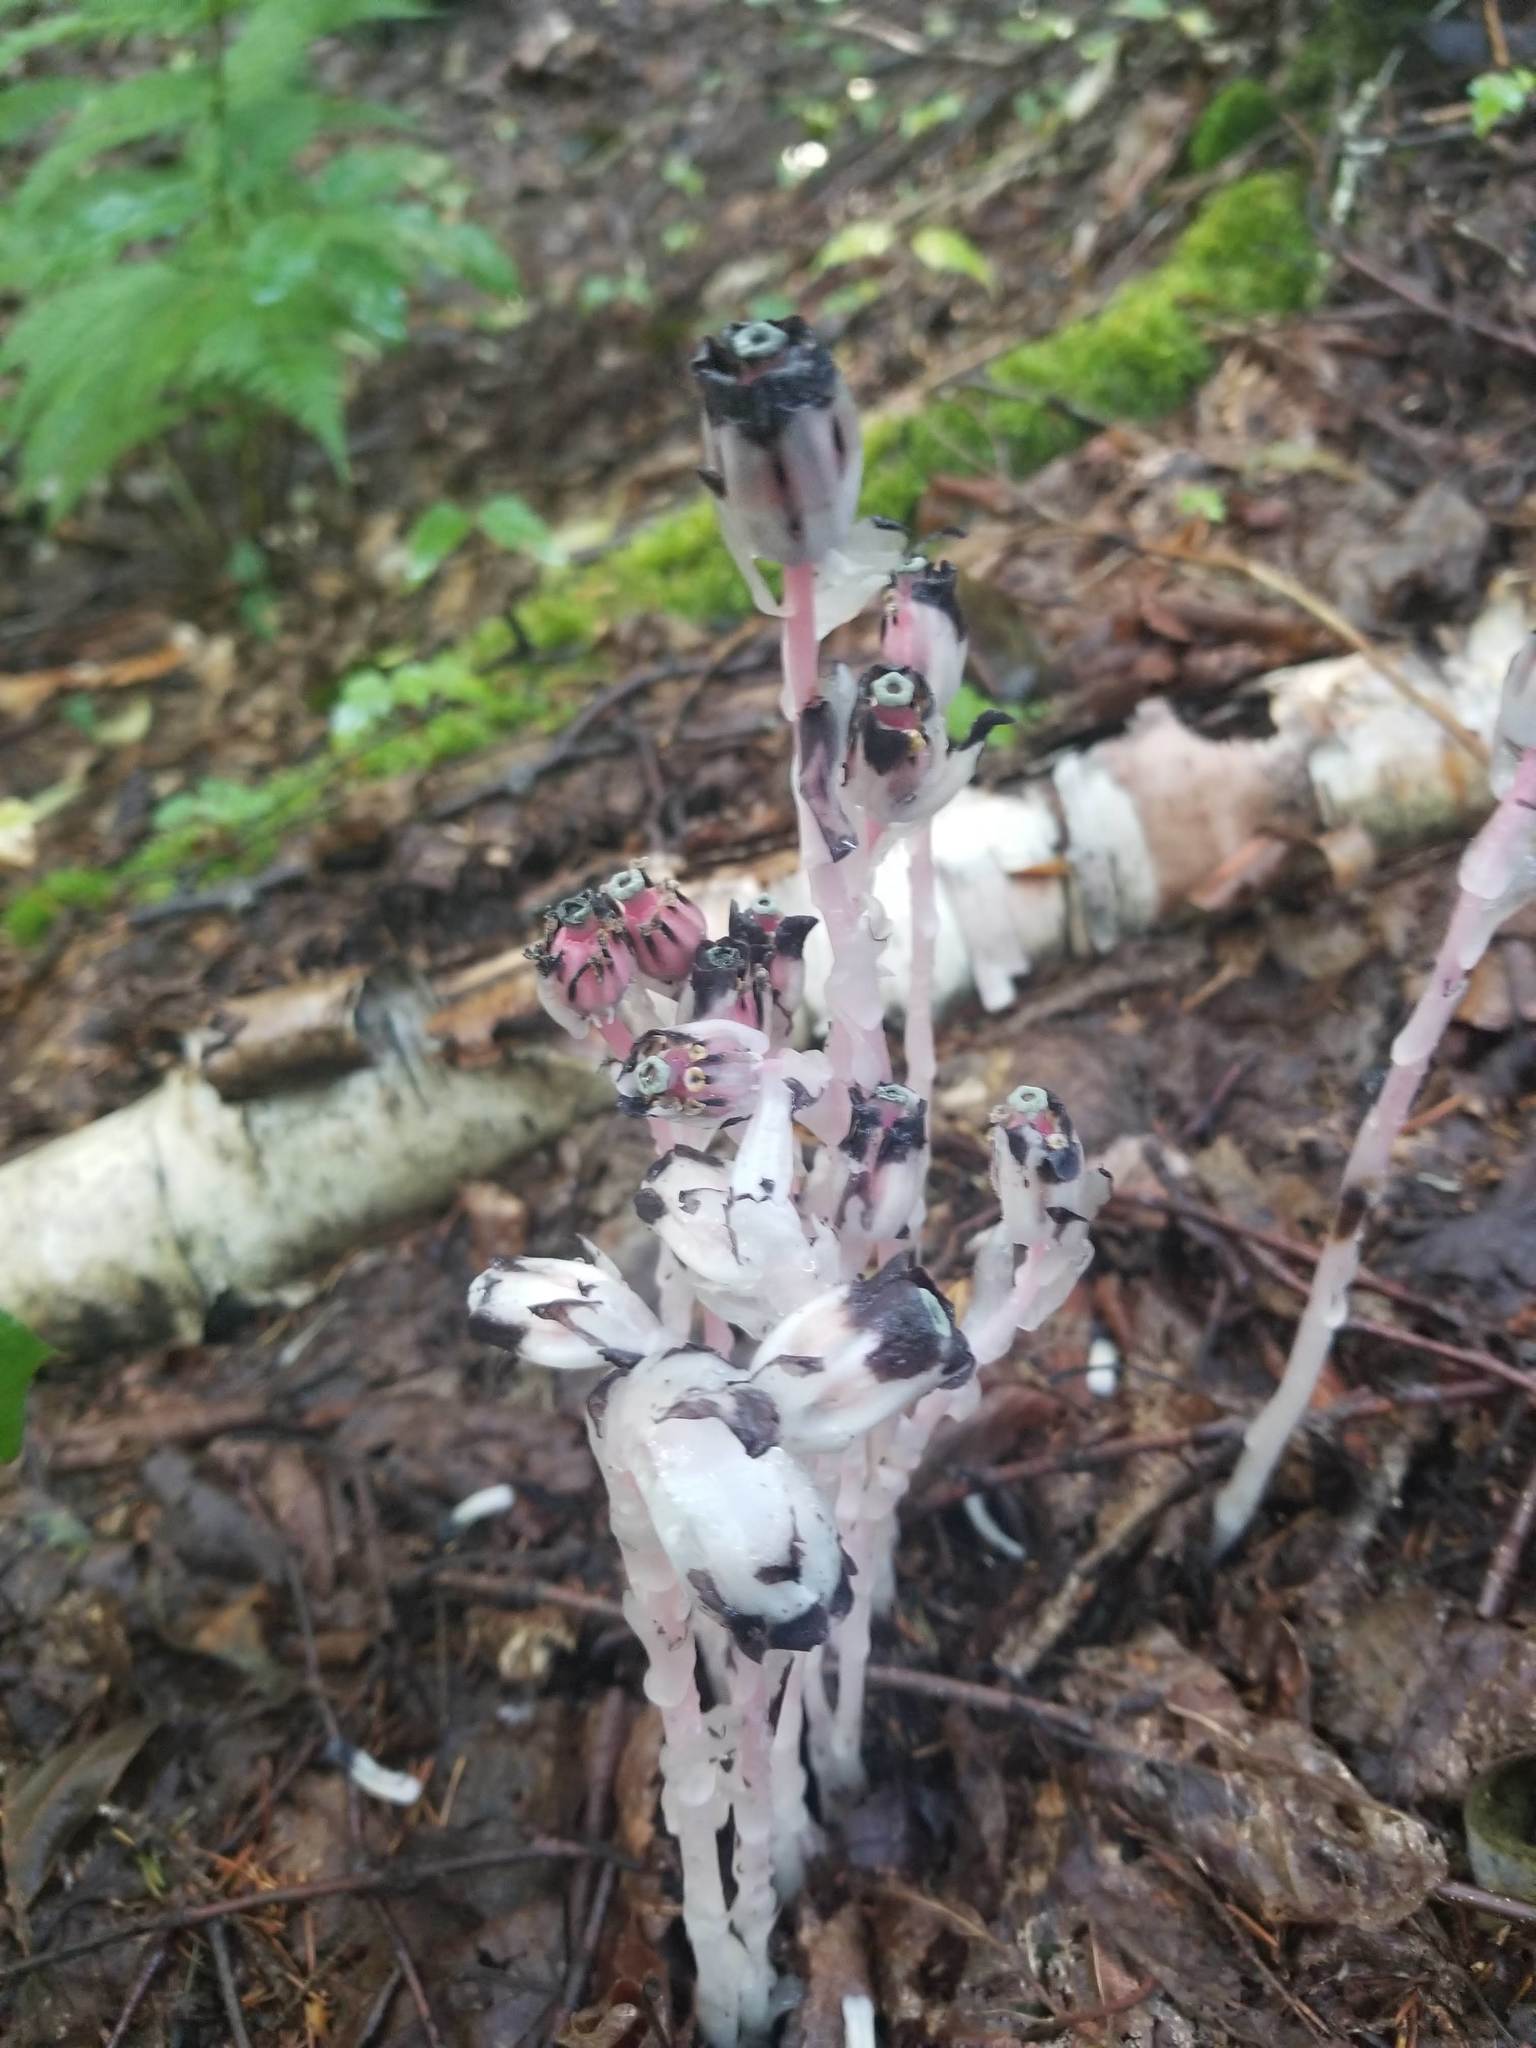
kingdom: Plantae
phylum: Tracheophyta
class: Magnoliopsida
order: Ericales
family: Ericaceae
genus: Monotropa
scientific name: Monotropa uniflora
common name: Convulsion root
